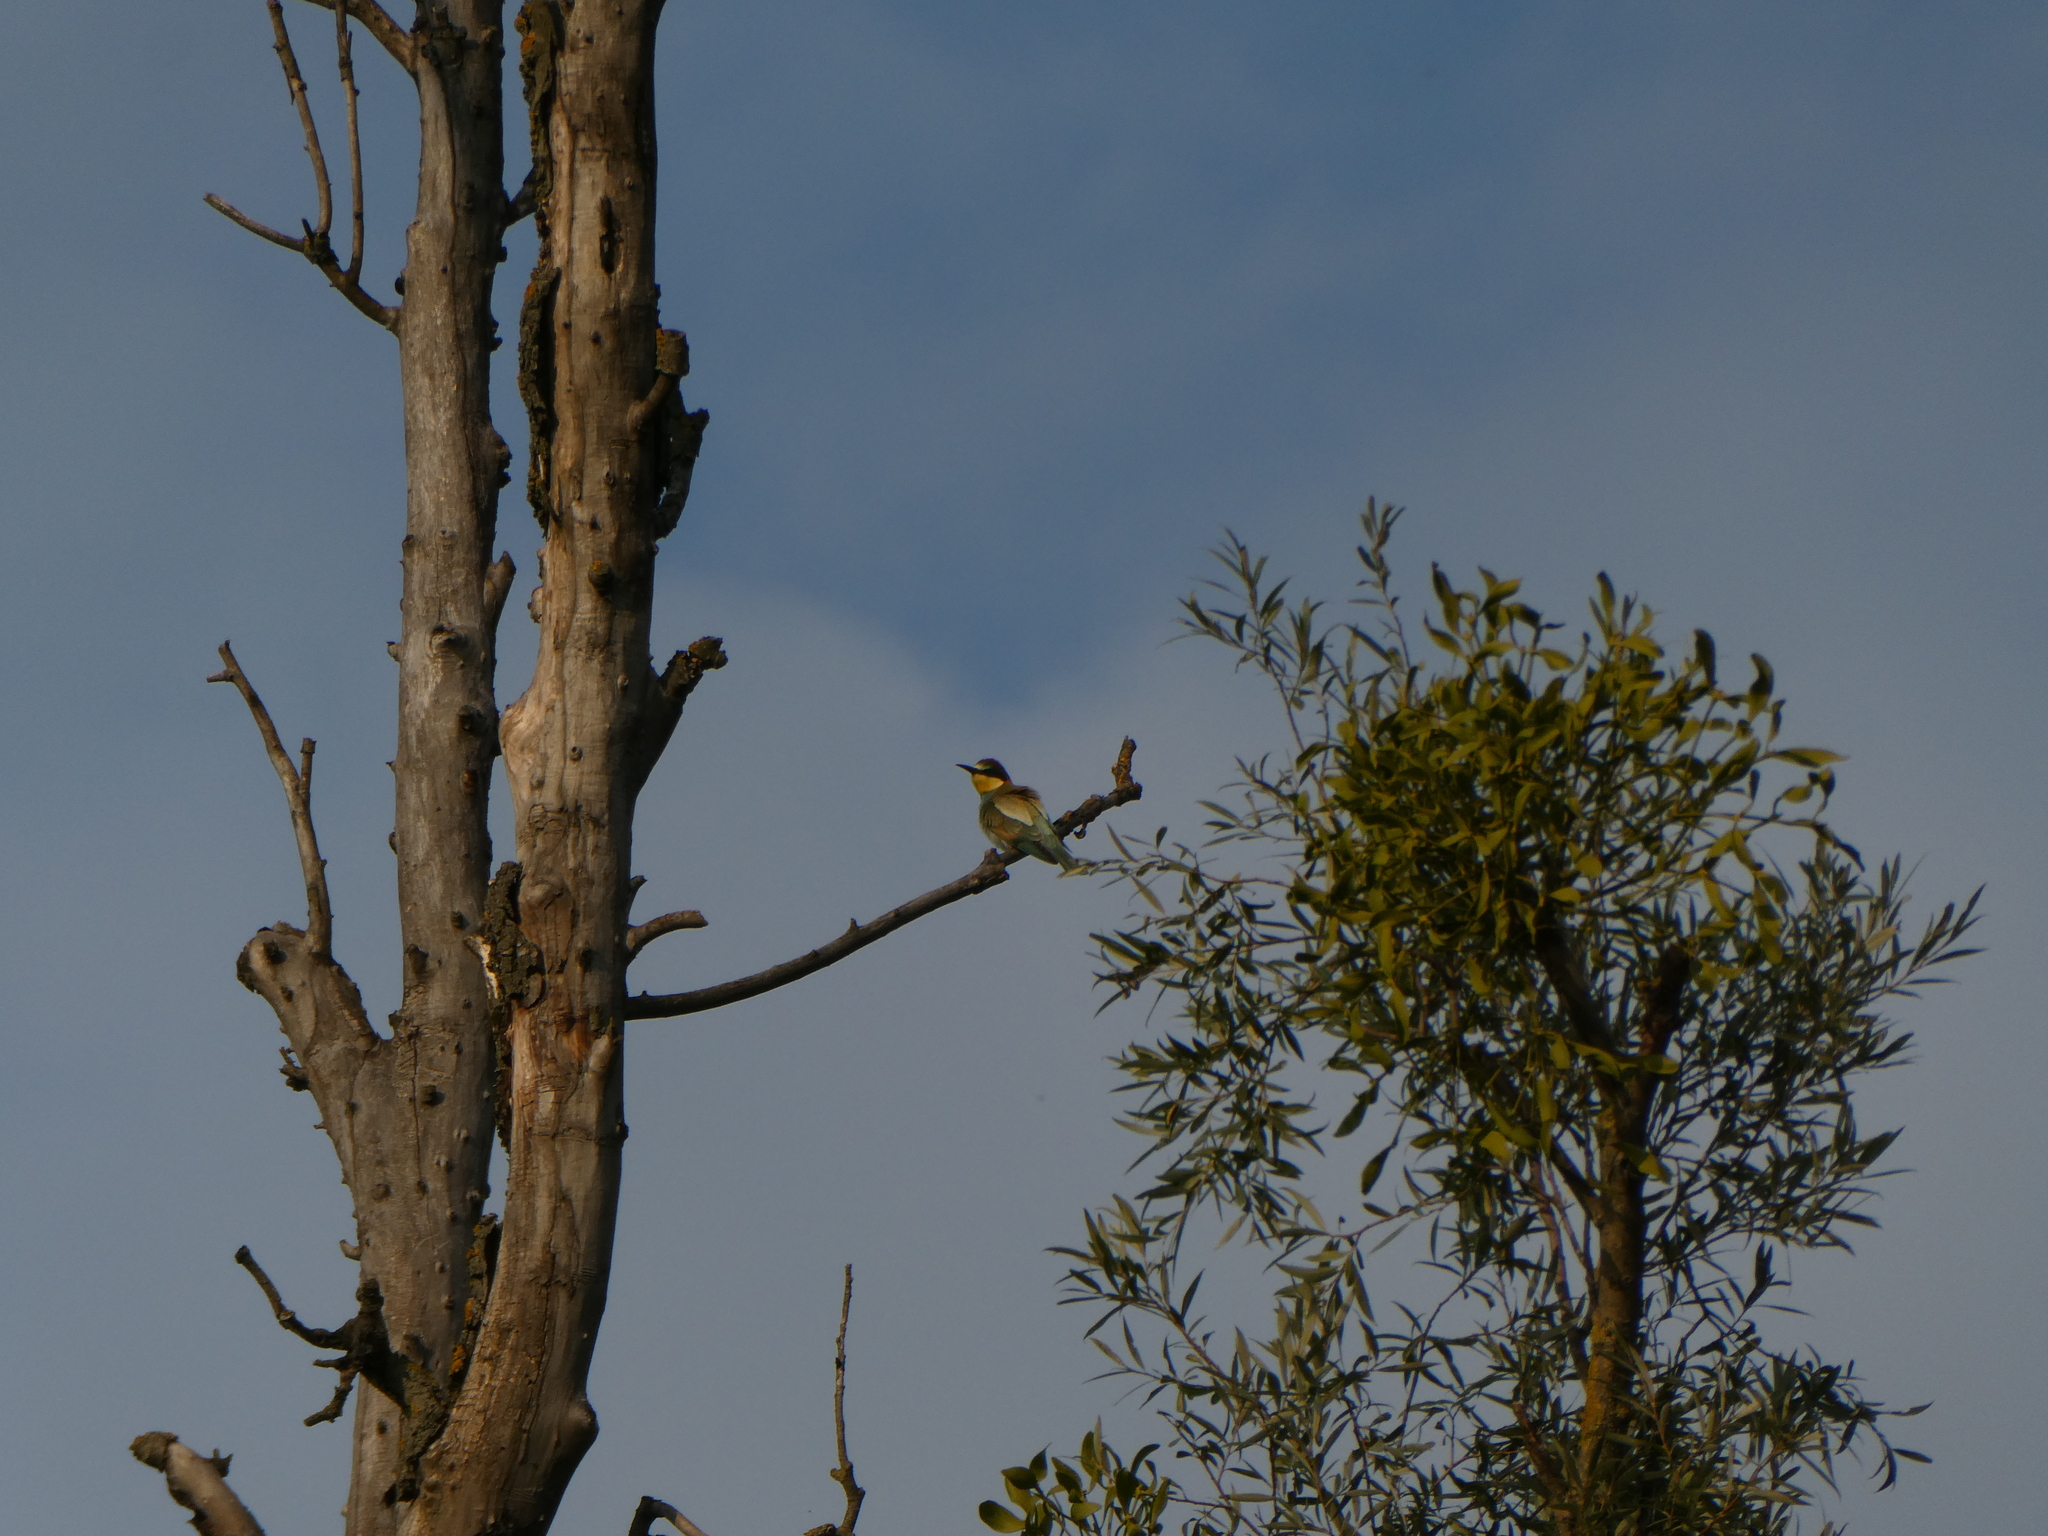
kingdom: Animalia
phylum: Chordata
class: Aves
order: Coraciiformes
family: Meropidae
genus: Merops
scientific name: Merops apiaster
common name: European bee-eater
